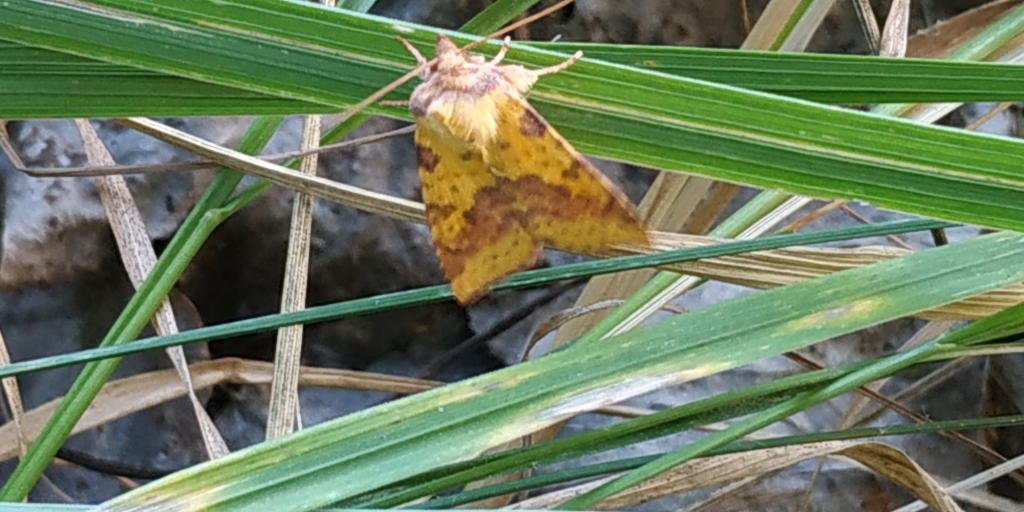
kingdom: Animalia
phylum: Arthropoda
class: Insecta
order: Lepidoptera
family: Noctuidae
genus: Xanthia
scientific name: Xanthia togata
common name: Pink-barred sallow
